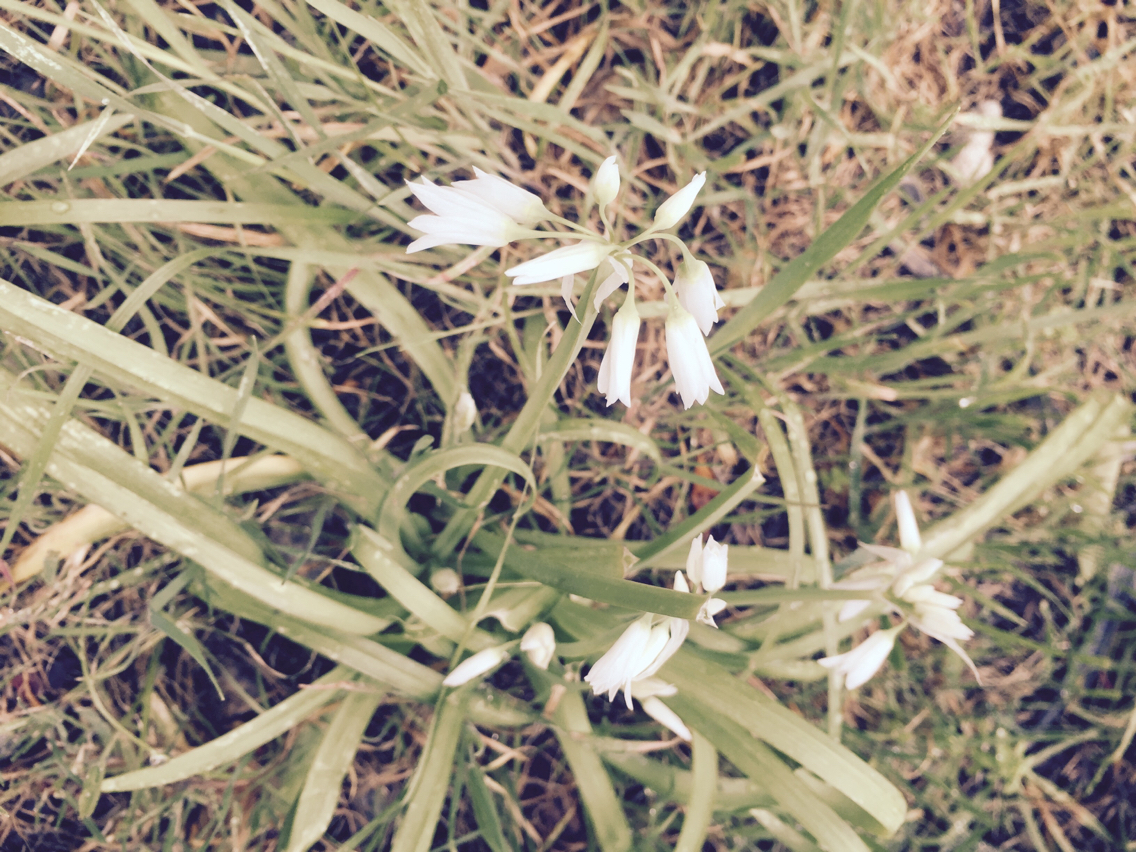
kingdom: Plantae
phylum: Tracheophyta
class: Liliopsida
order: Asparagales
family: Amaryllidaceae
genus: Allium
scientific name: Allium triquetrum
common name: Three-cornered garlic
